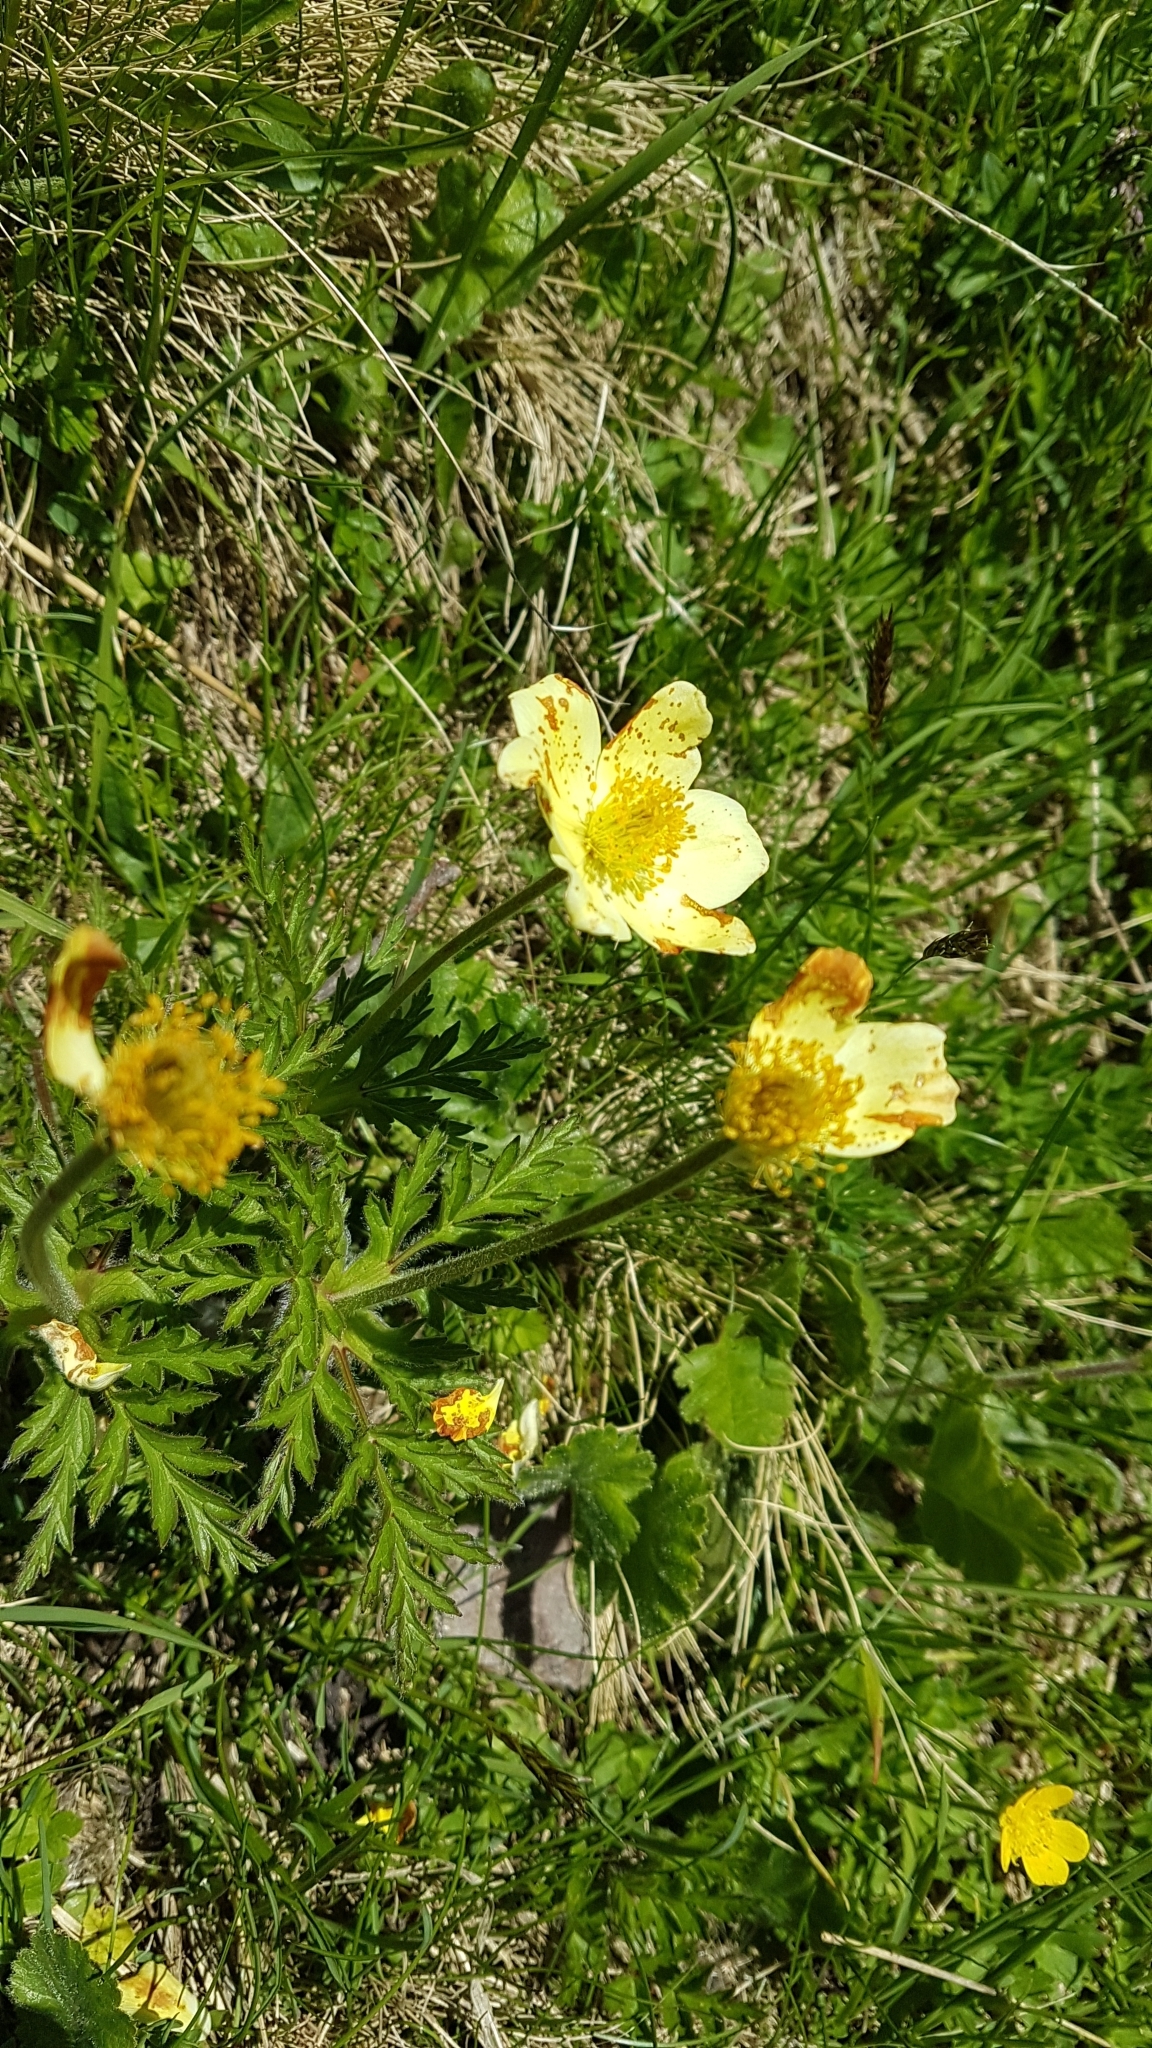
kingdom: Plantae
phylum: Tracheophyta
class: Magnoliopsida
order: Ranunculales
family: Ranunculaceae
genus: Pulsatilla
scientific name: Pulsatilla alpina
